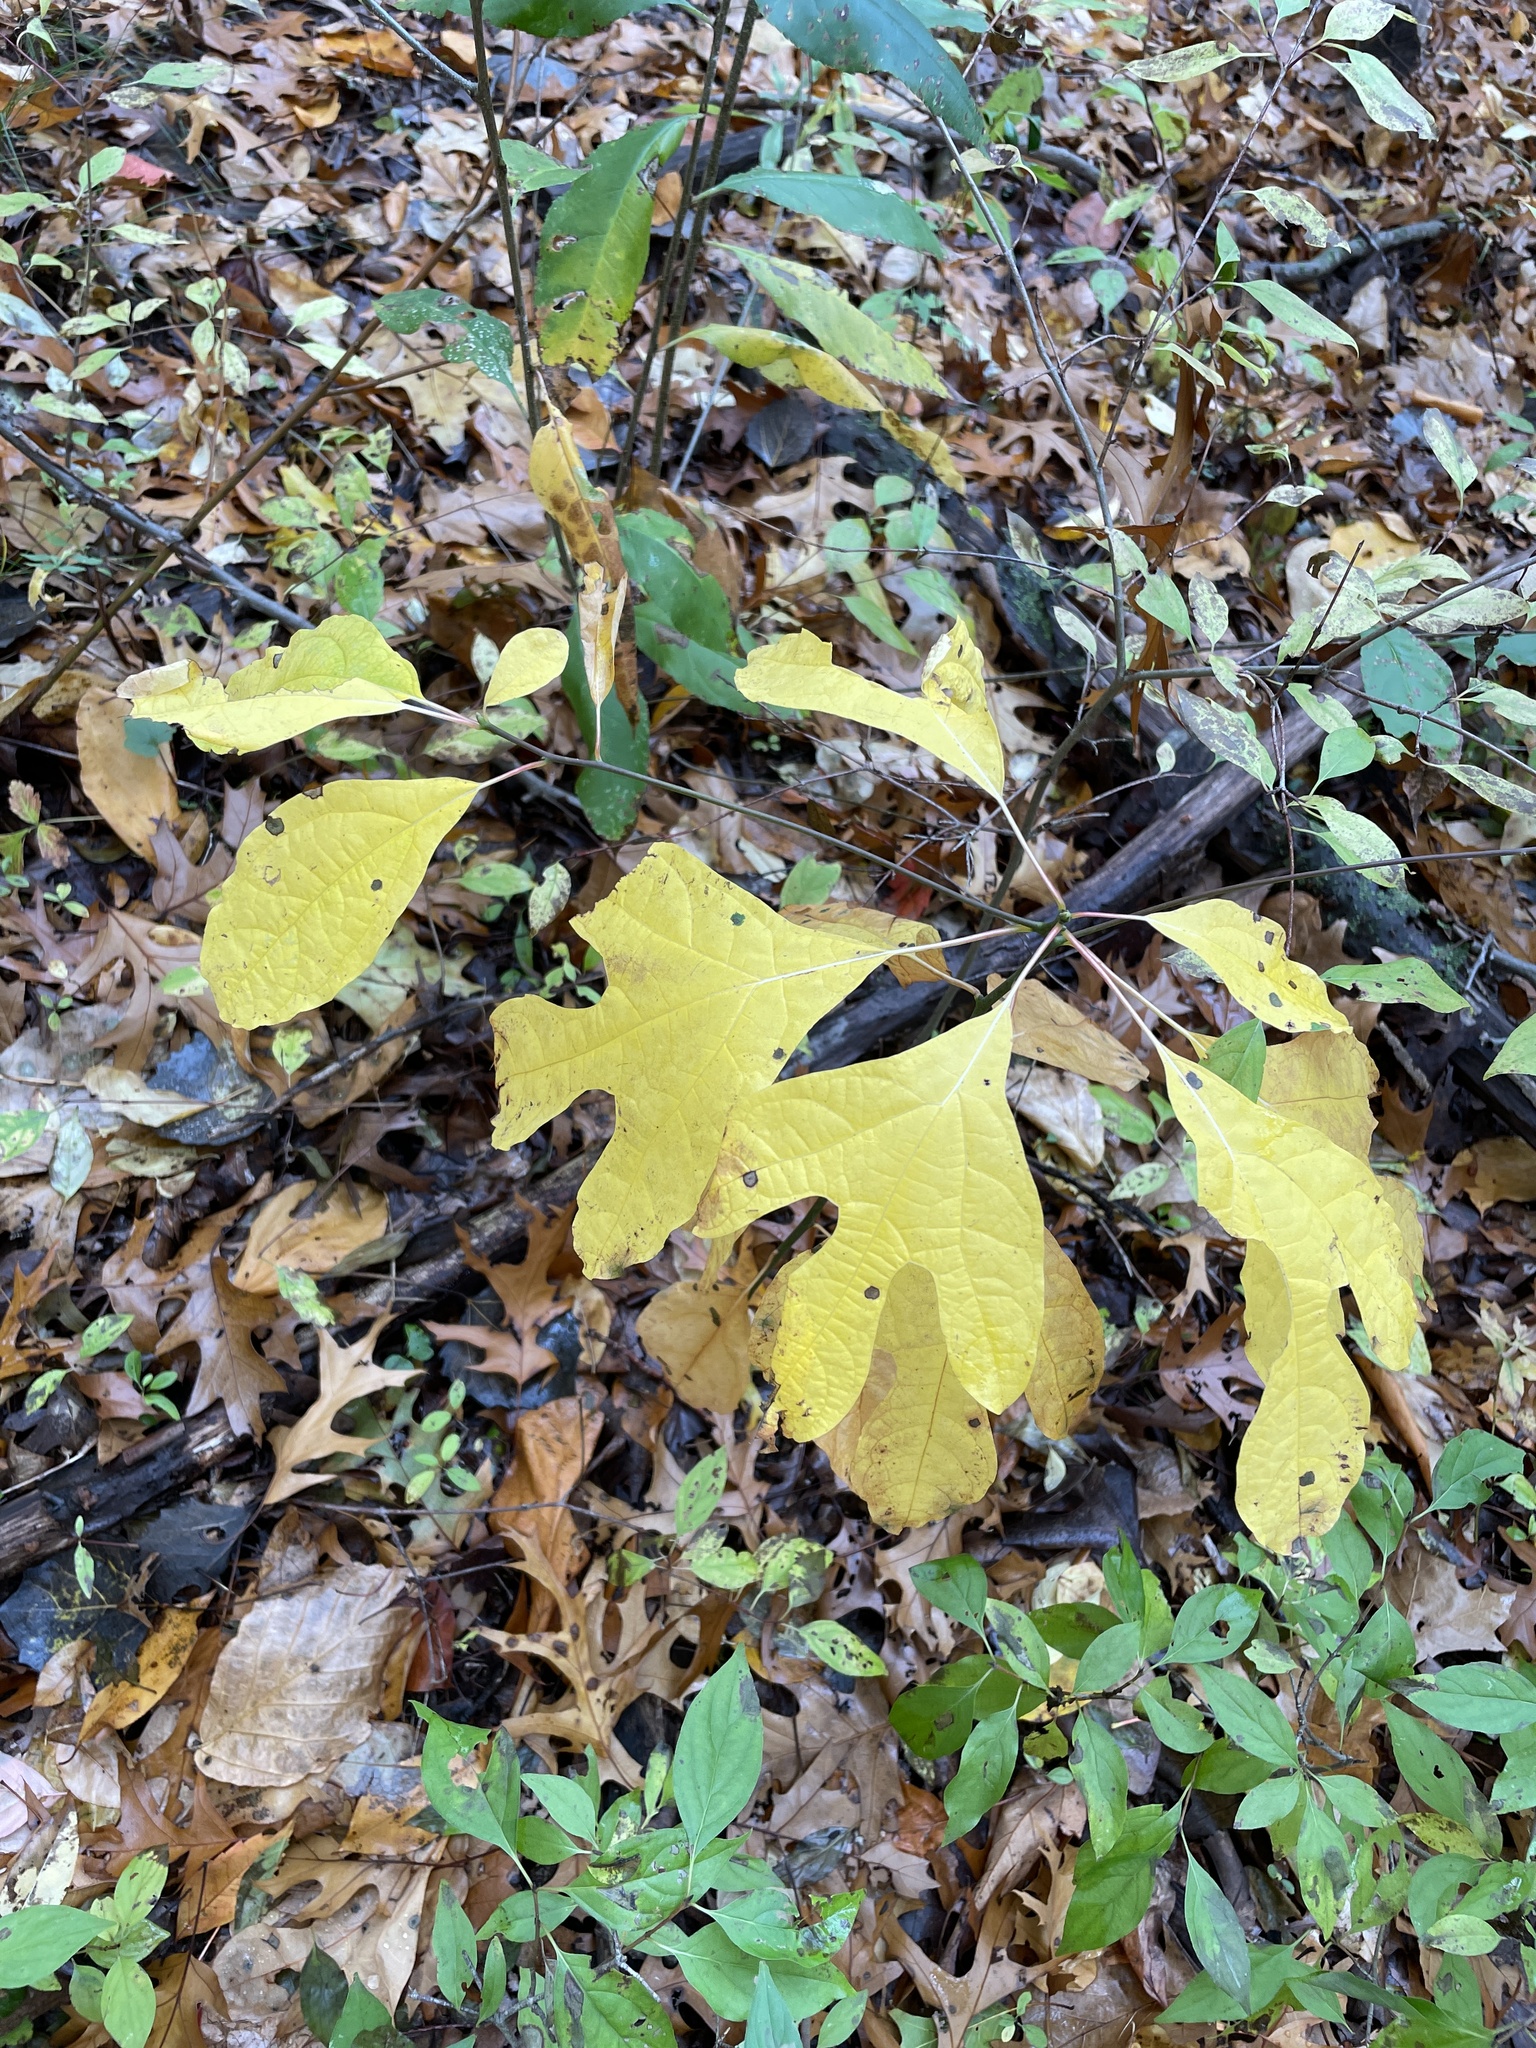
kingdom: Plantae
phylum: Tracheophyta
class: Magnoliopsida
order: Laurales
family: Lauraceae
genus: Sassafras
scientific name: Sassafras albidum
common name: Sassafras
